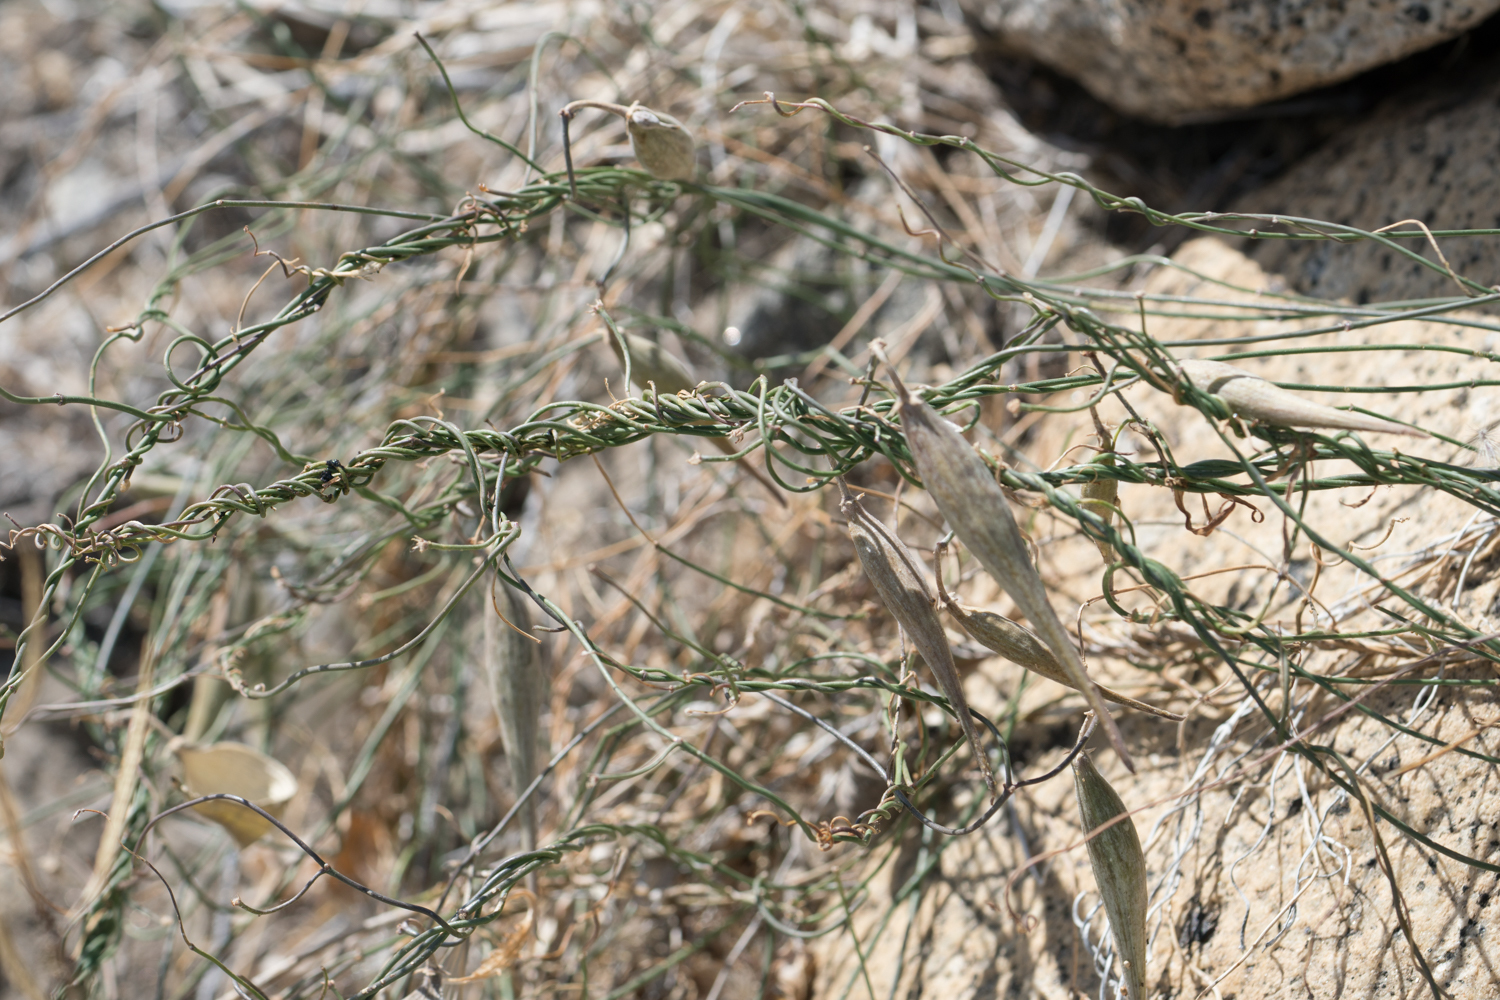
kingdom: Plantae
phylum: Tracheophyta
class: Magnoliopsida
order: Gentianales
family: Apocynaceae
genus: Funastrum
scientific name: Funastrum heterophyllum
